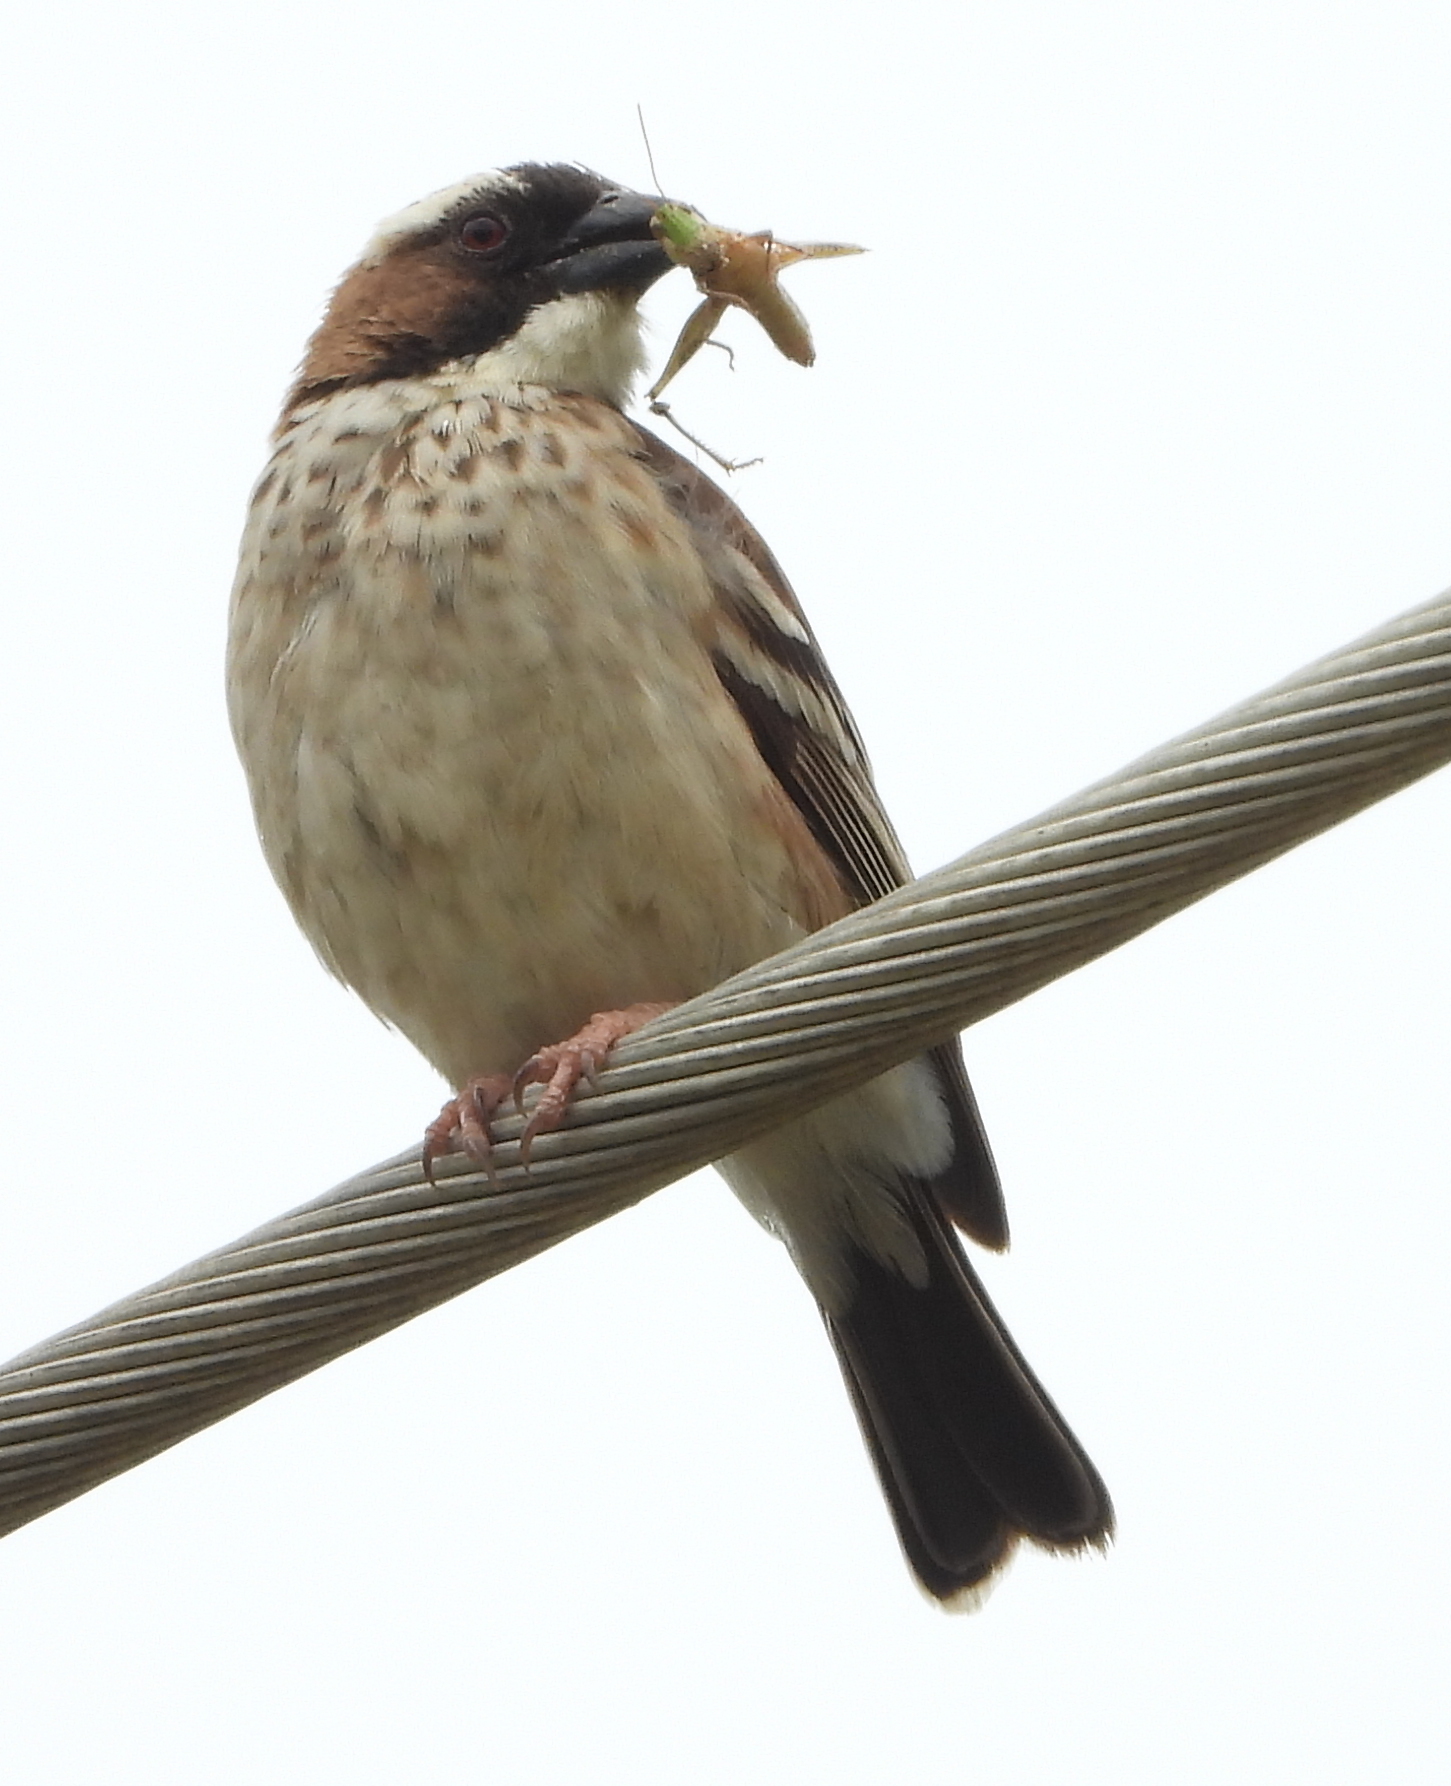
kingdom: Animalia
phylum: Chordata
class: Aves
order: Passeriformes
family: Passeridae
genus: Plocepasser
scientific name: Plocepasser mahali
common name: White-browed sparrow-weaver
